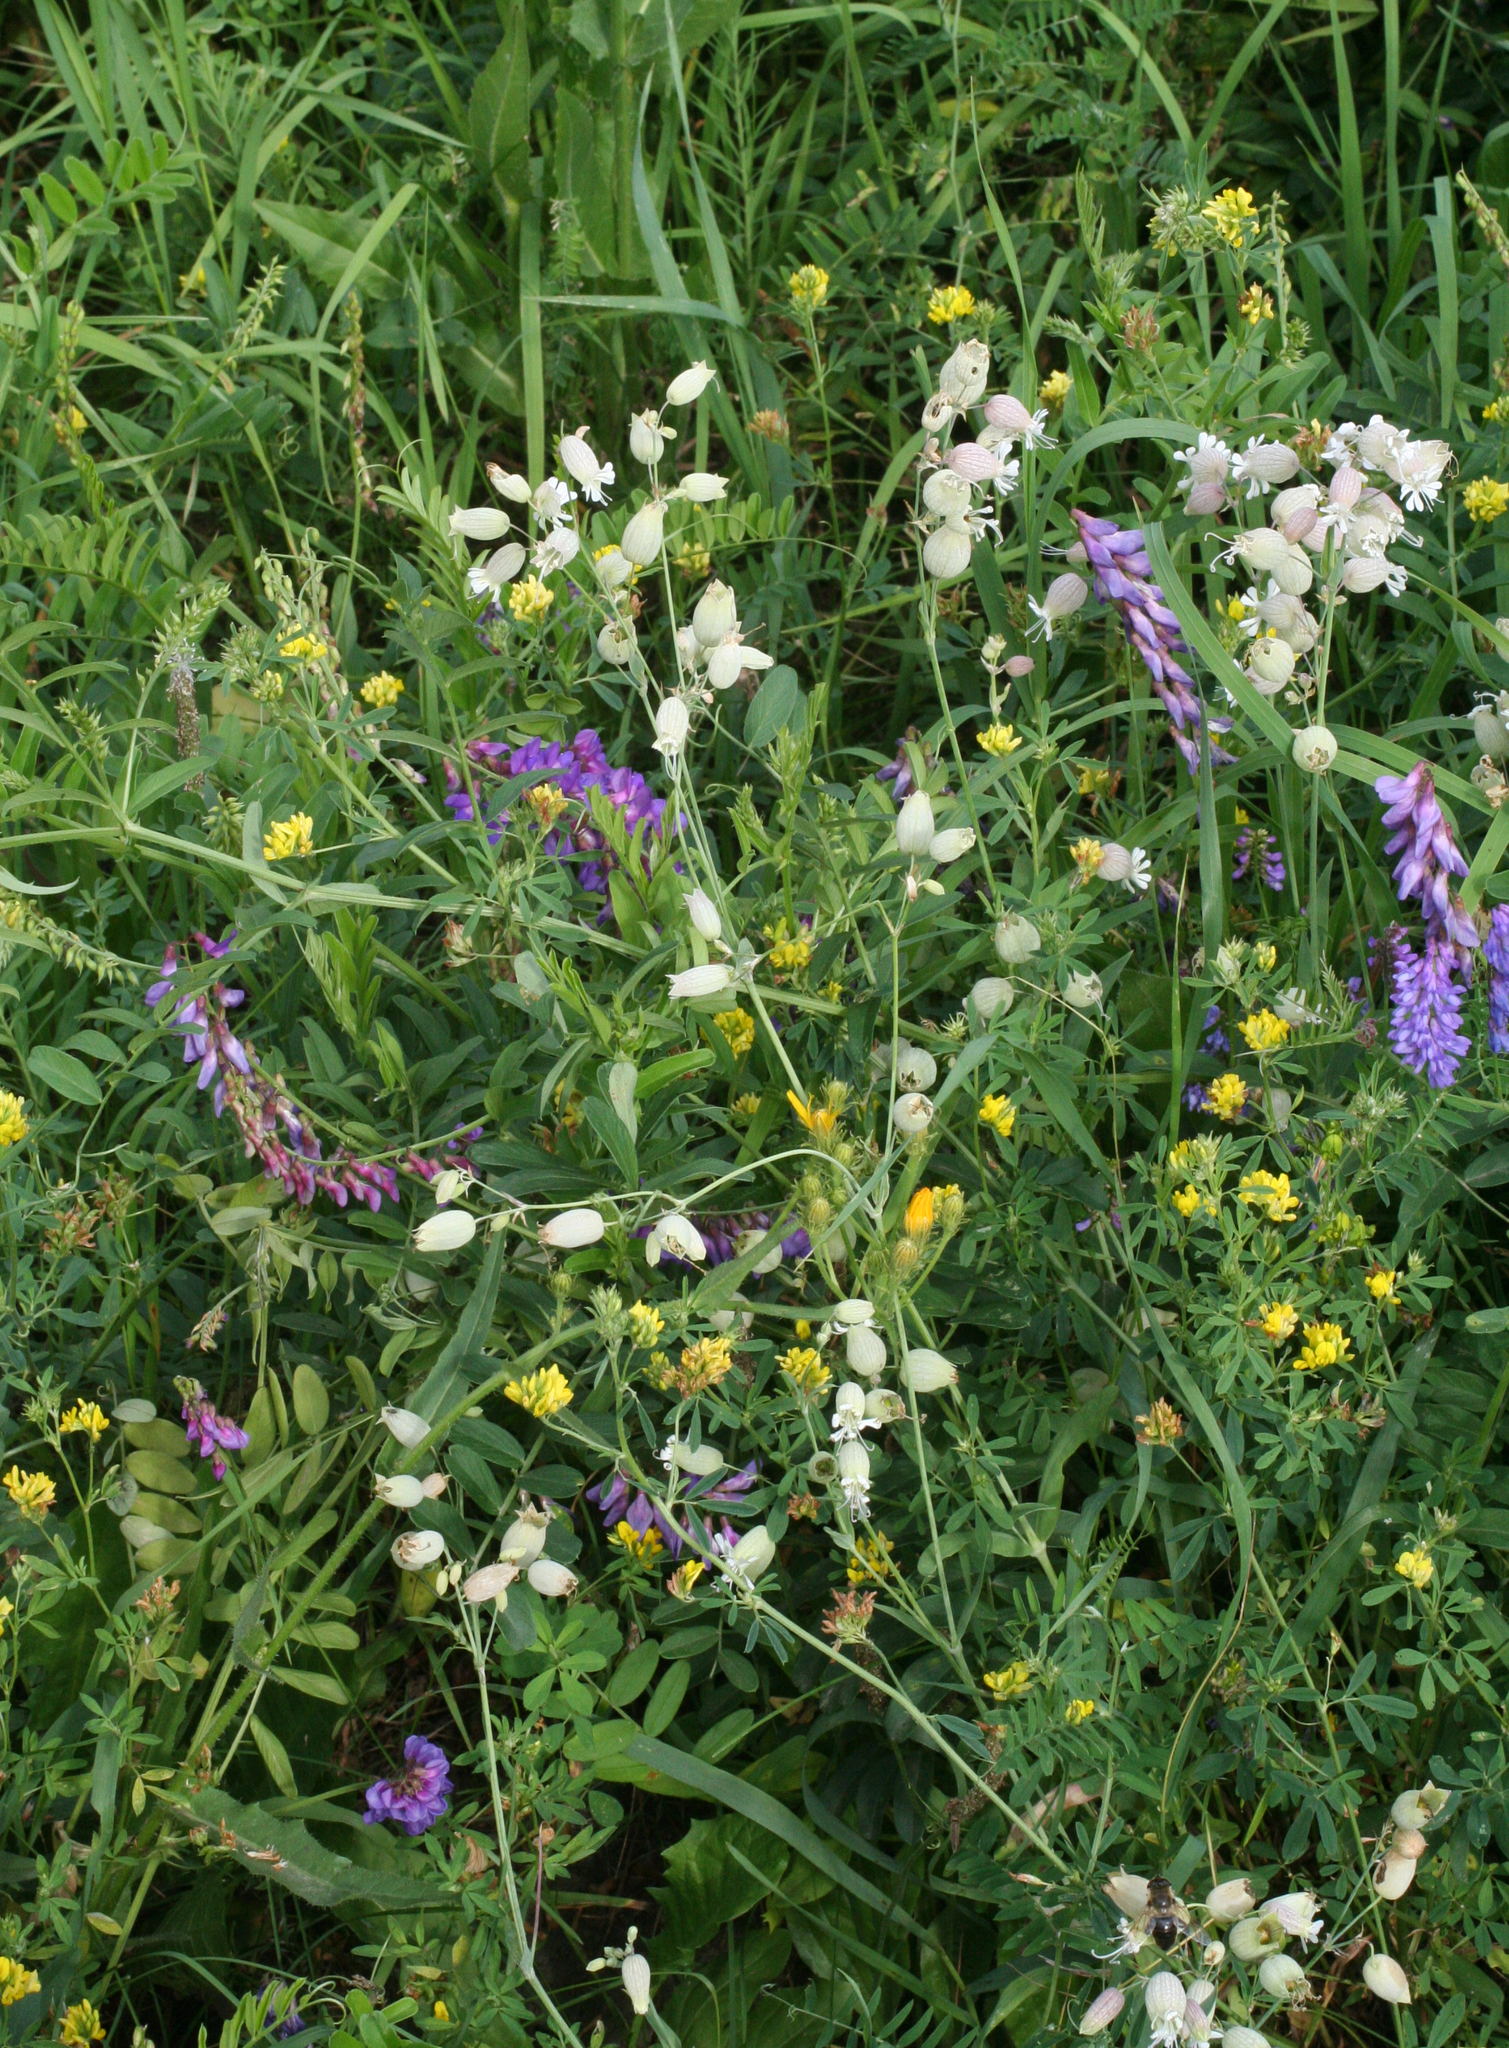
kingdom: Plantae
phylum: Tracheophyta
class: Magnoliopsida
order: Caryophyllales
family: Caryophyllaceae
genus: Silene
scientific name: Silene vulgaris
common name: Bladder campion
